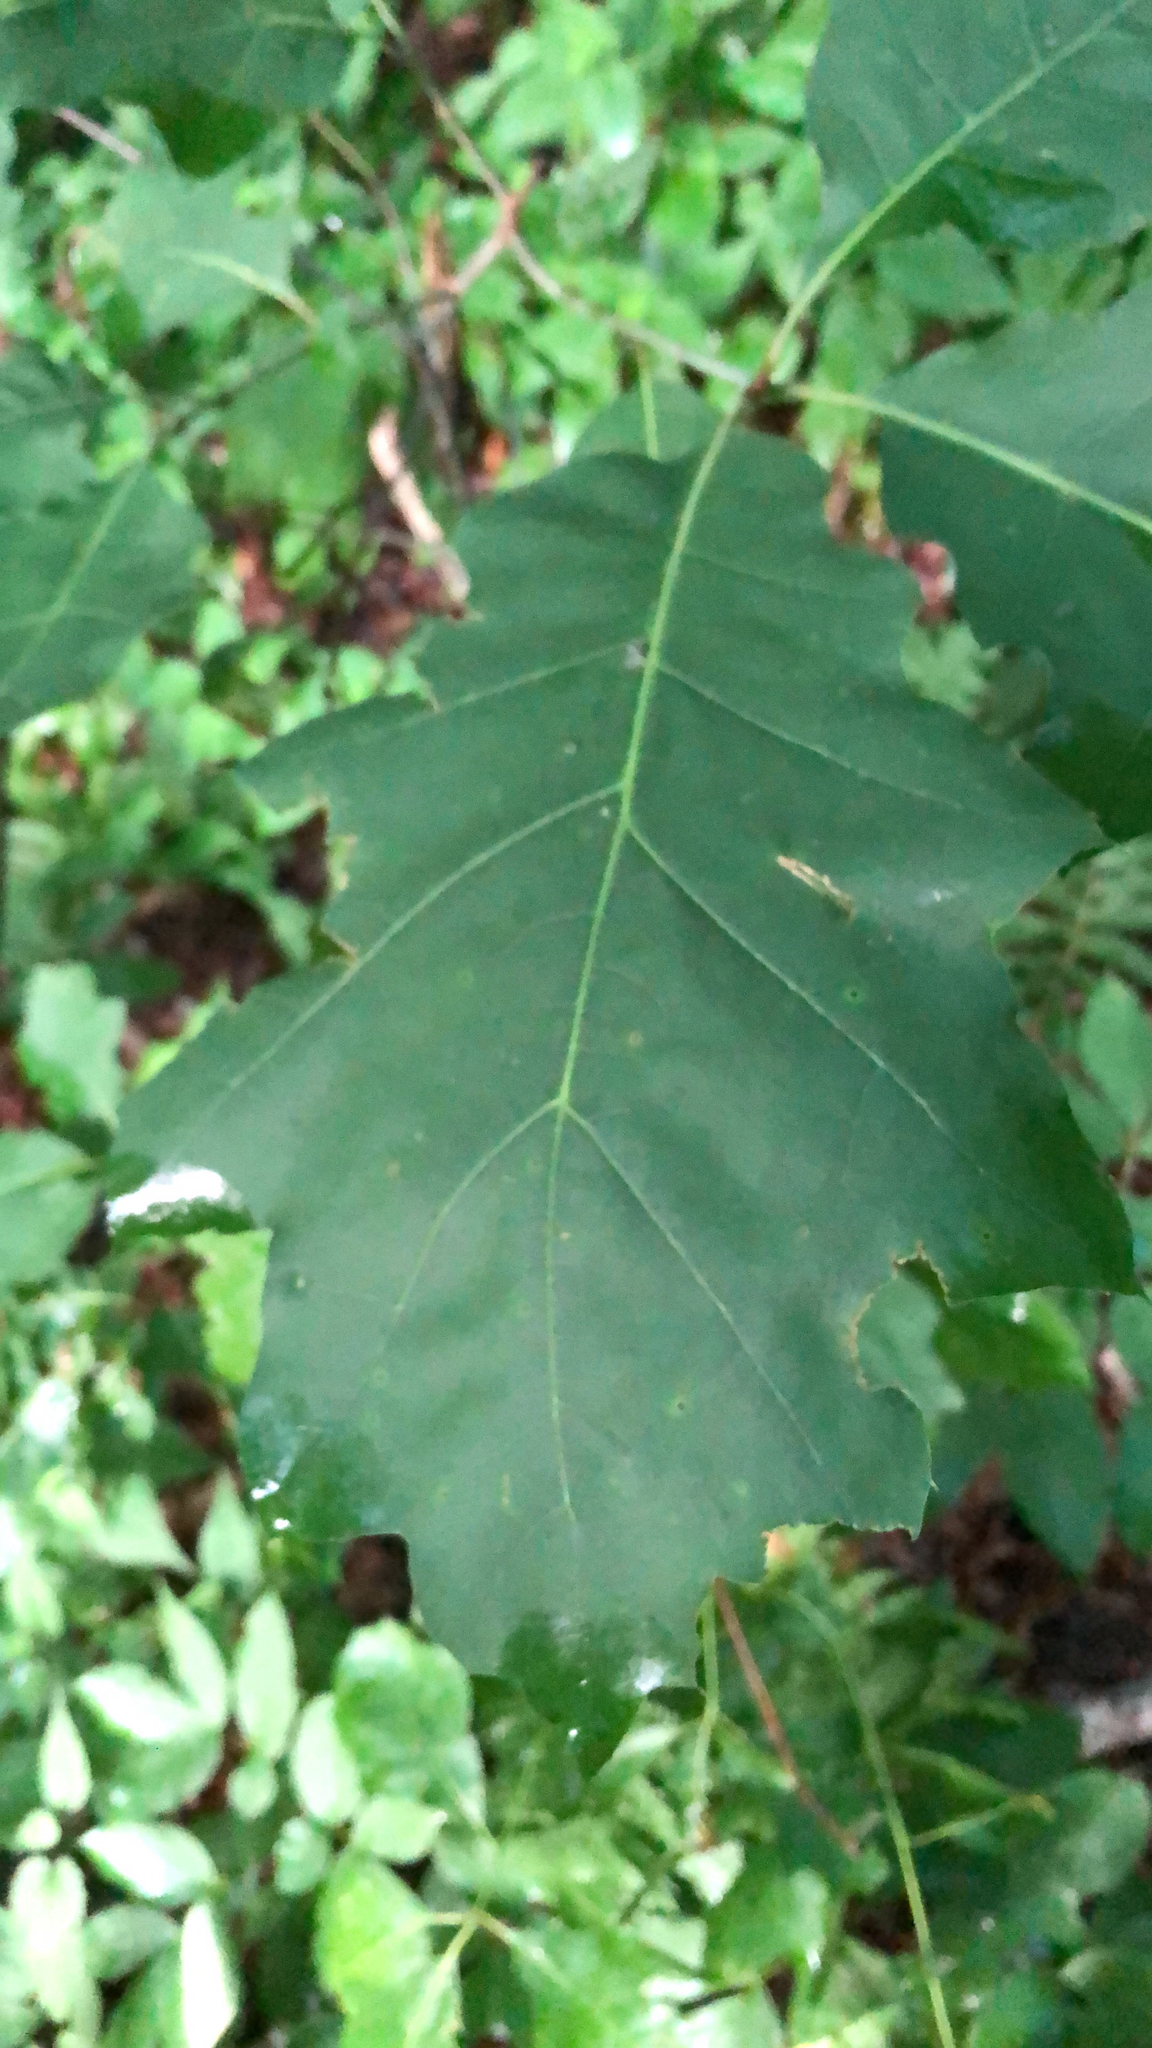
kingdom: Plantae
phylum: Tracheophyta
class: Magnoliopsida
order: Fagales
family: Fagaceae
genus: Quercus
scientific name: Quercus rubra
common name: Red oak
